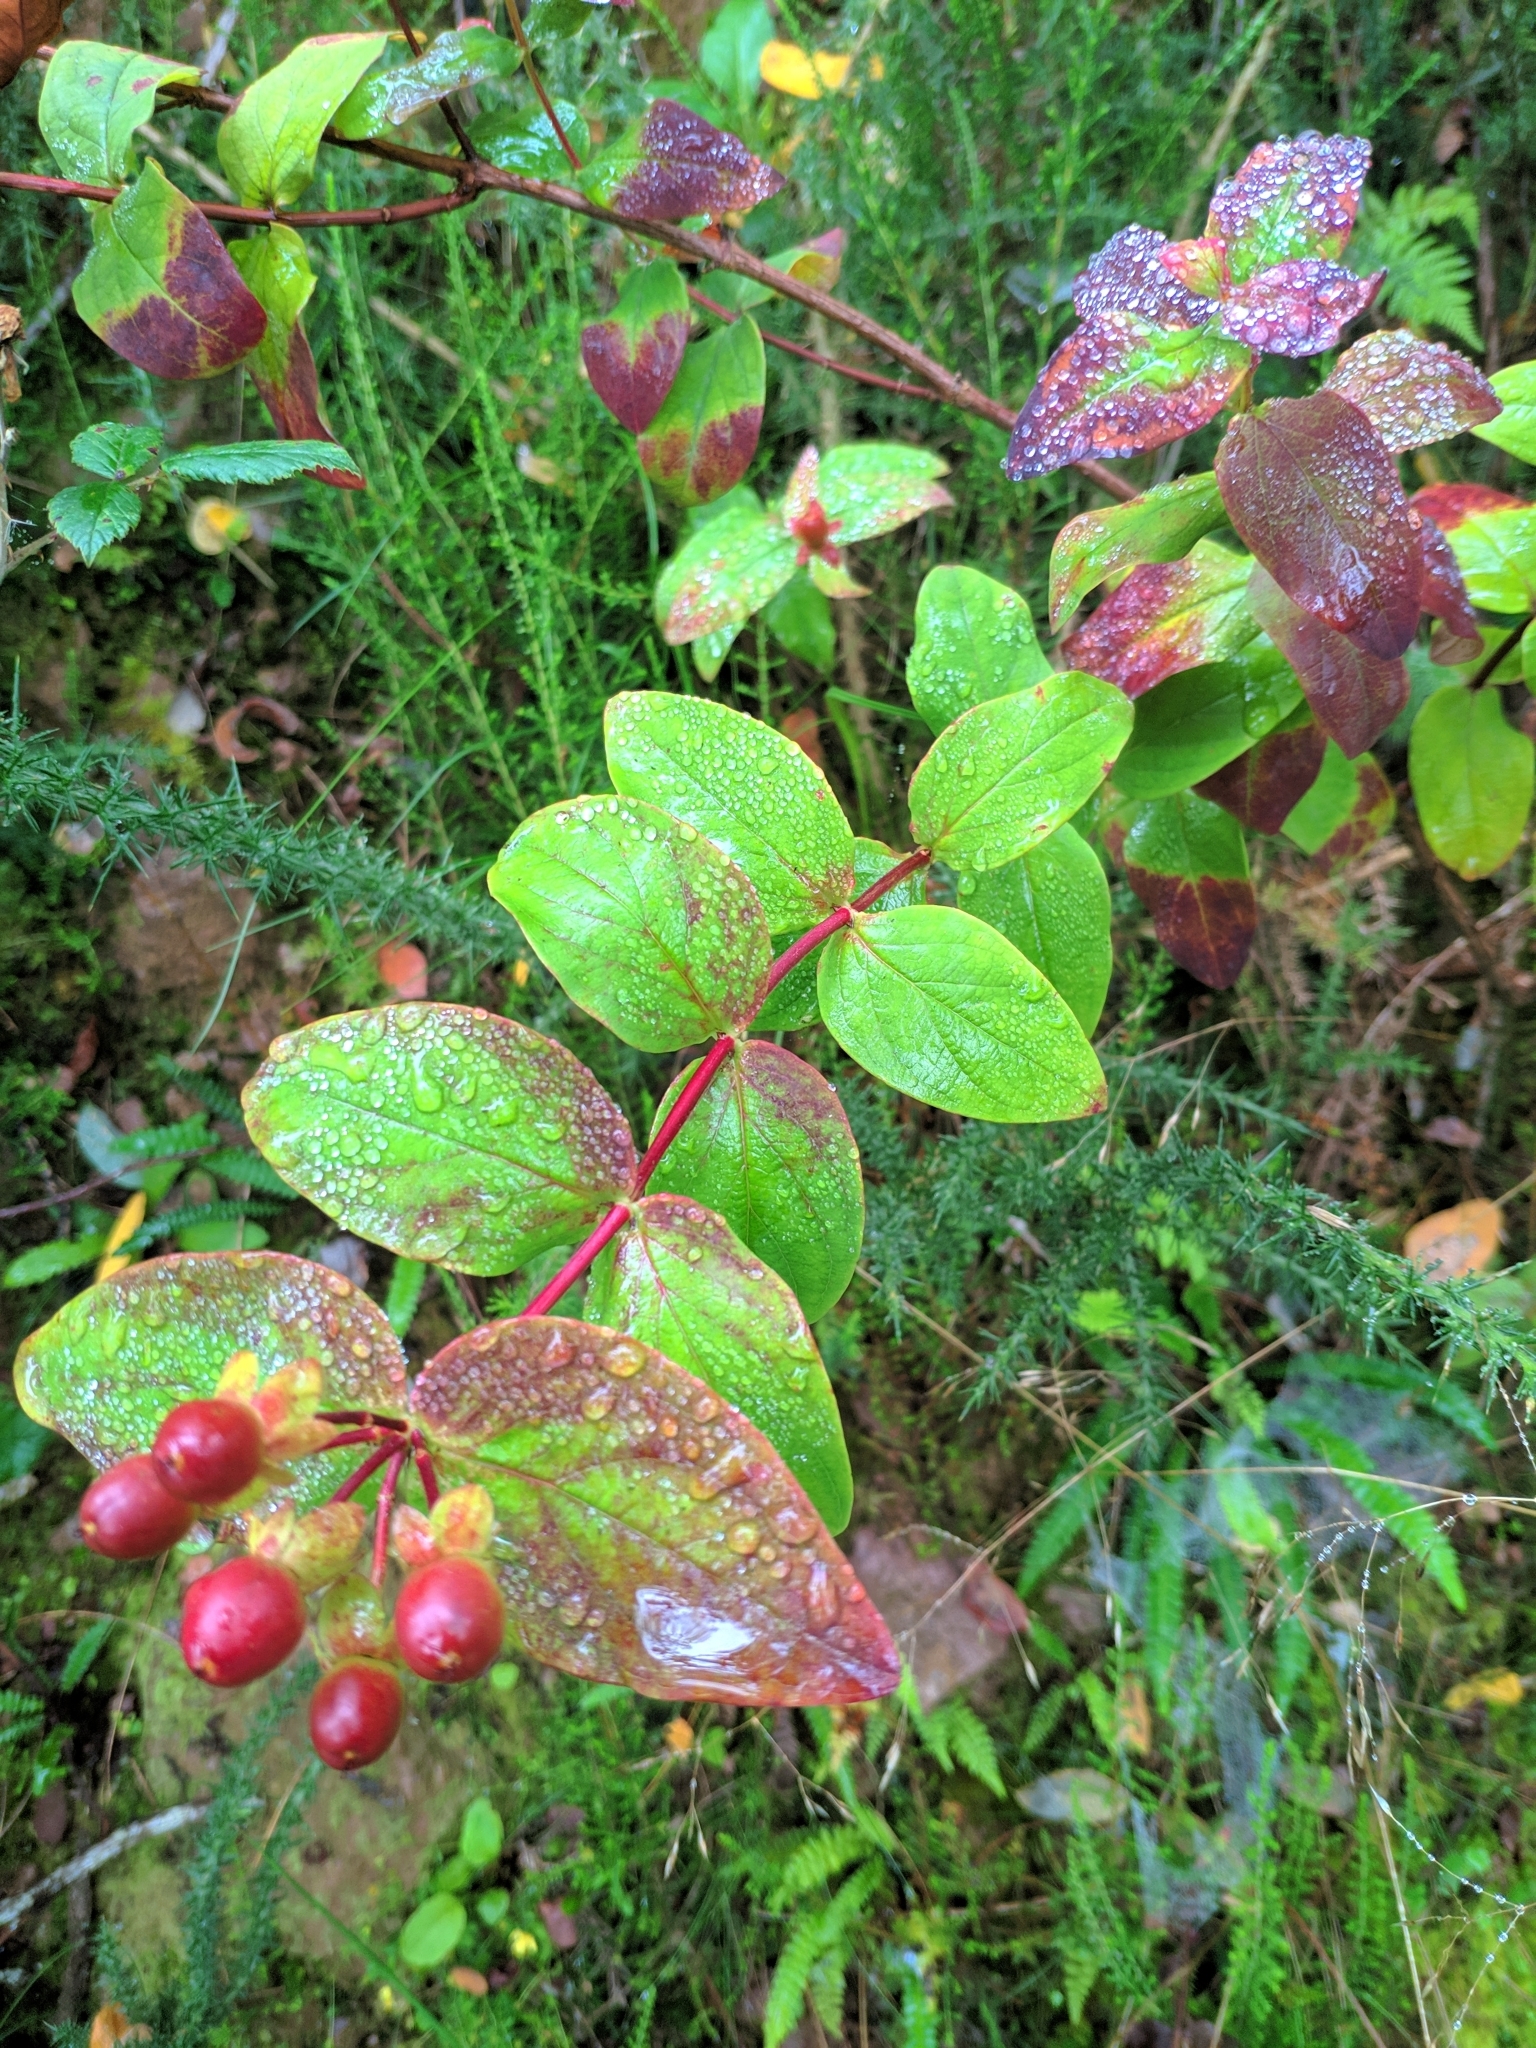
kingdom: Plantae
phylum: Tracheophyta
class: Magnoliopsida
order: Malpighiales
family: Hypericaceae
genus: Hypericum
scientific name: Hypericum androsaemum
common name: Sweet-amber
